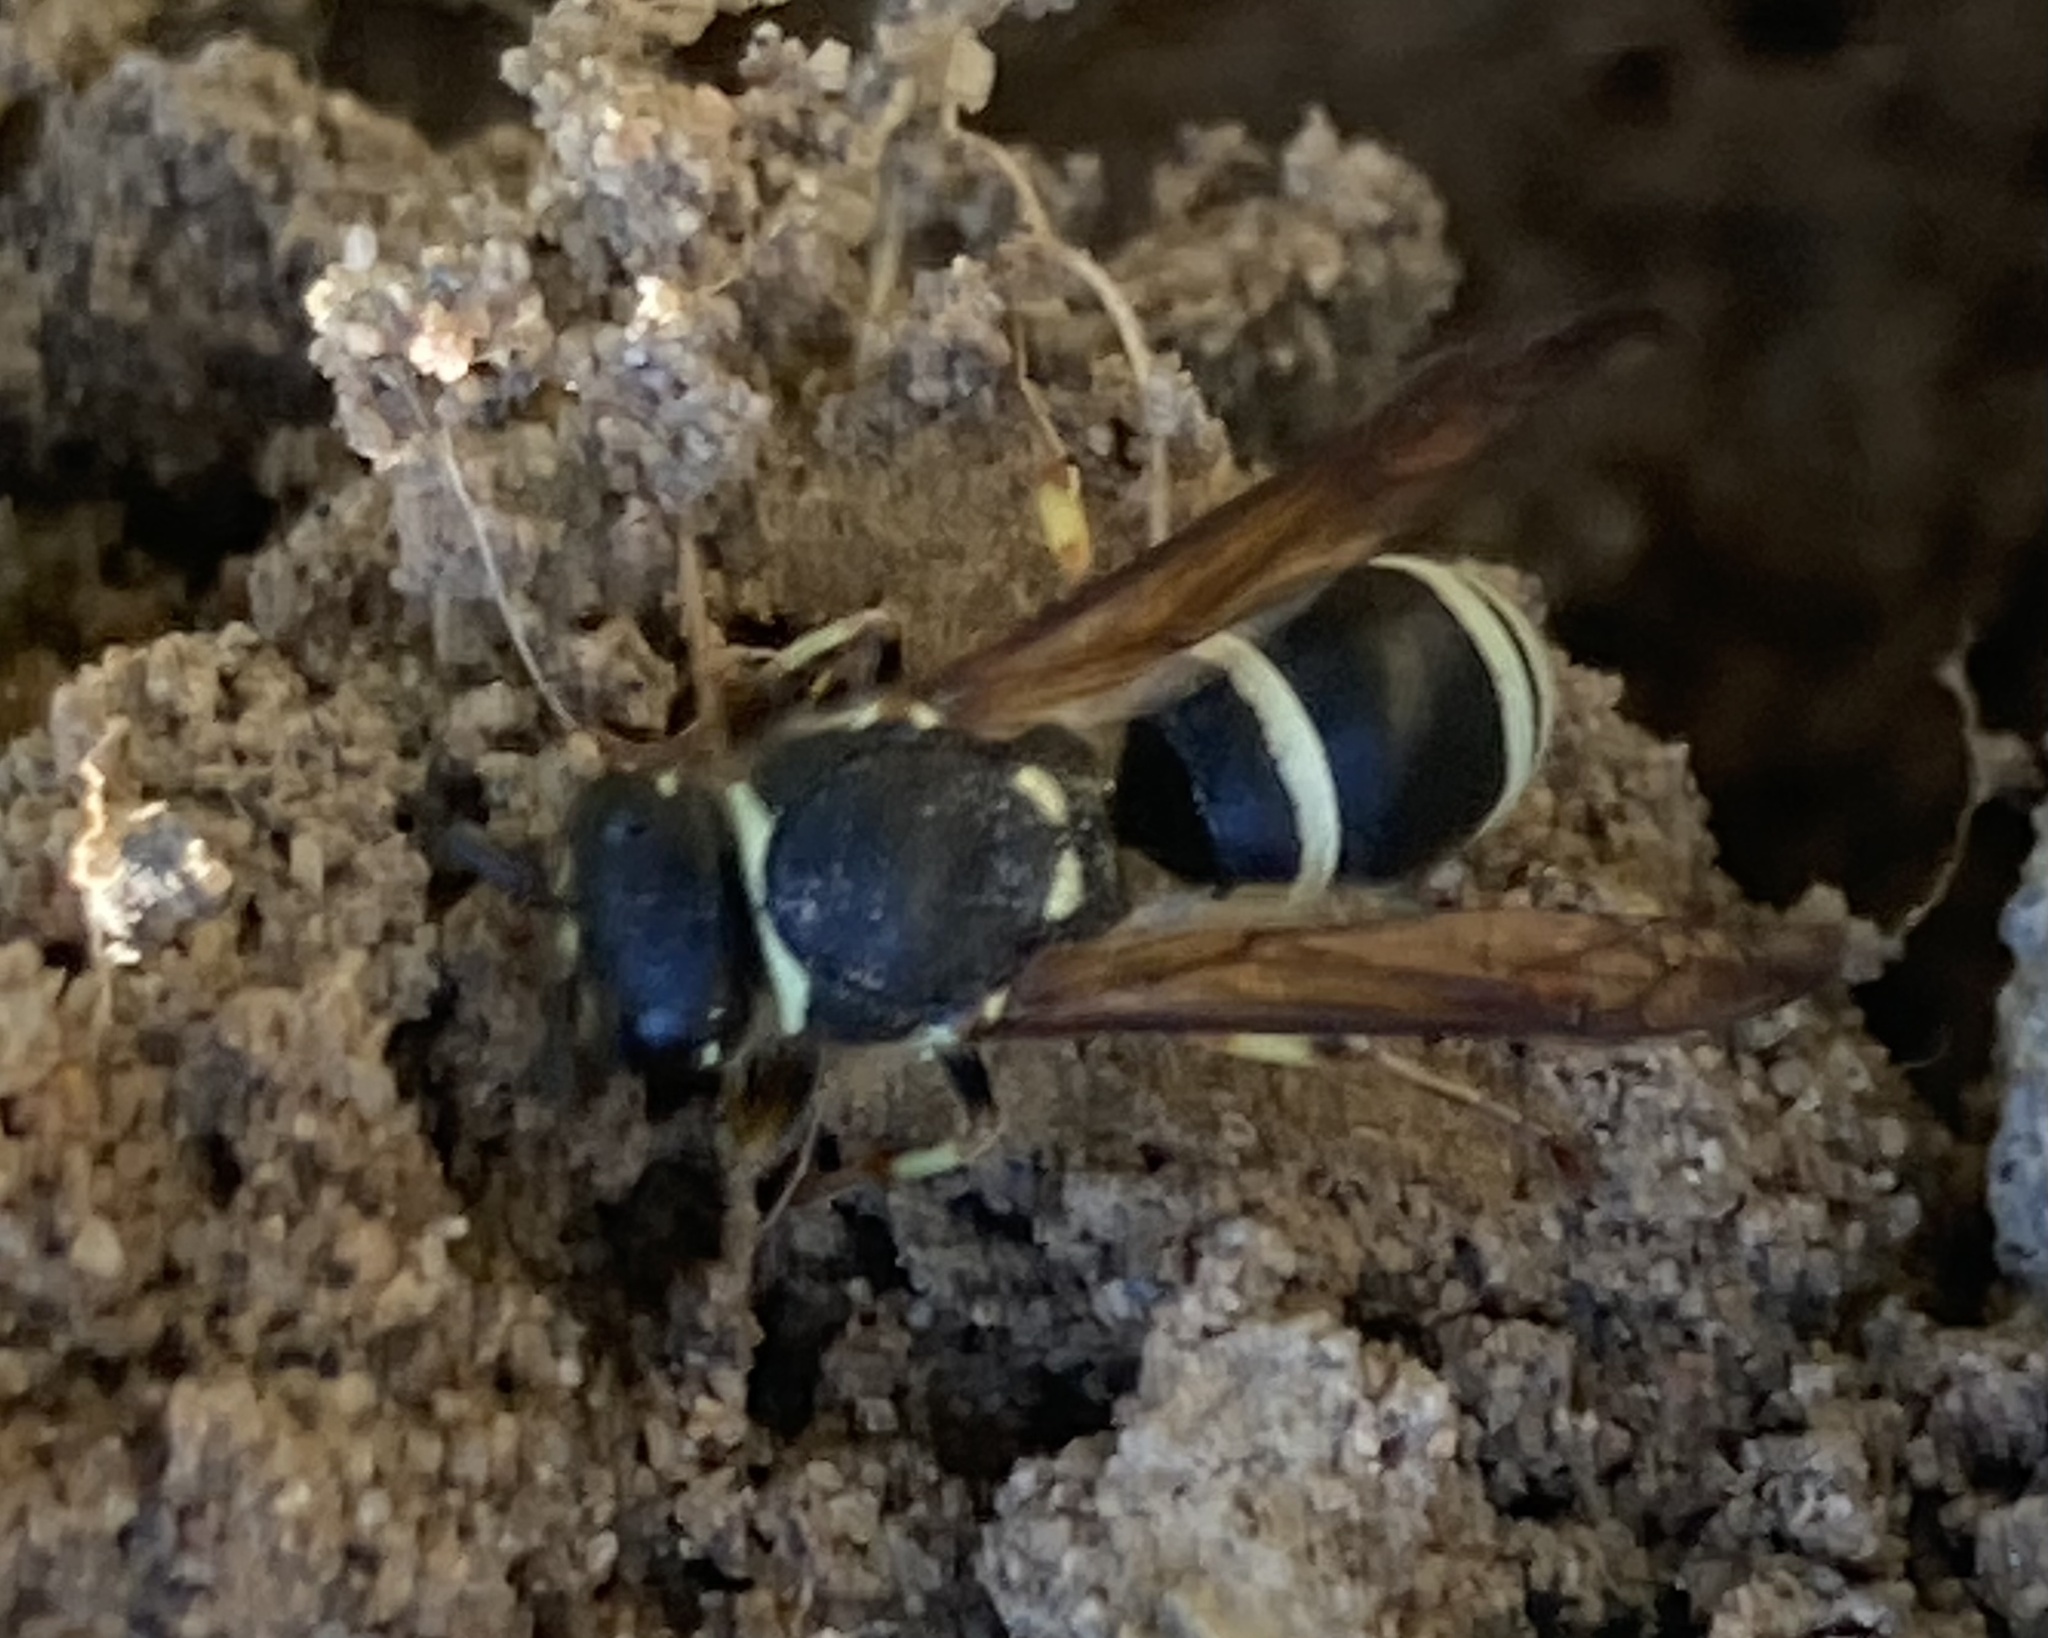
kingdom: Animalia
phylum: Arthropoda
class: Insecta
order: Hymenoptera
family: Vespidae
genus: Ancistrocerus
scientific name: Ancistrocerus albophaleratus
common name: White-banded potter wasp
